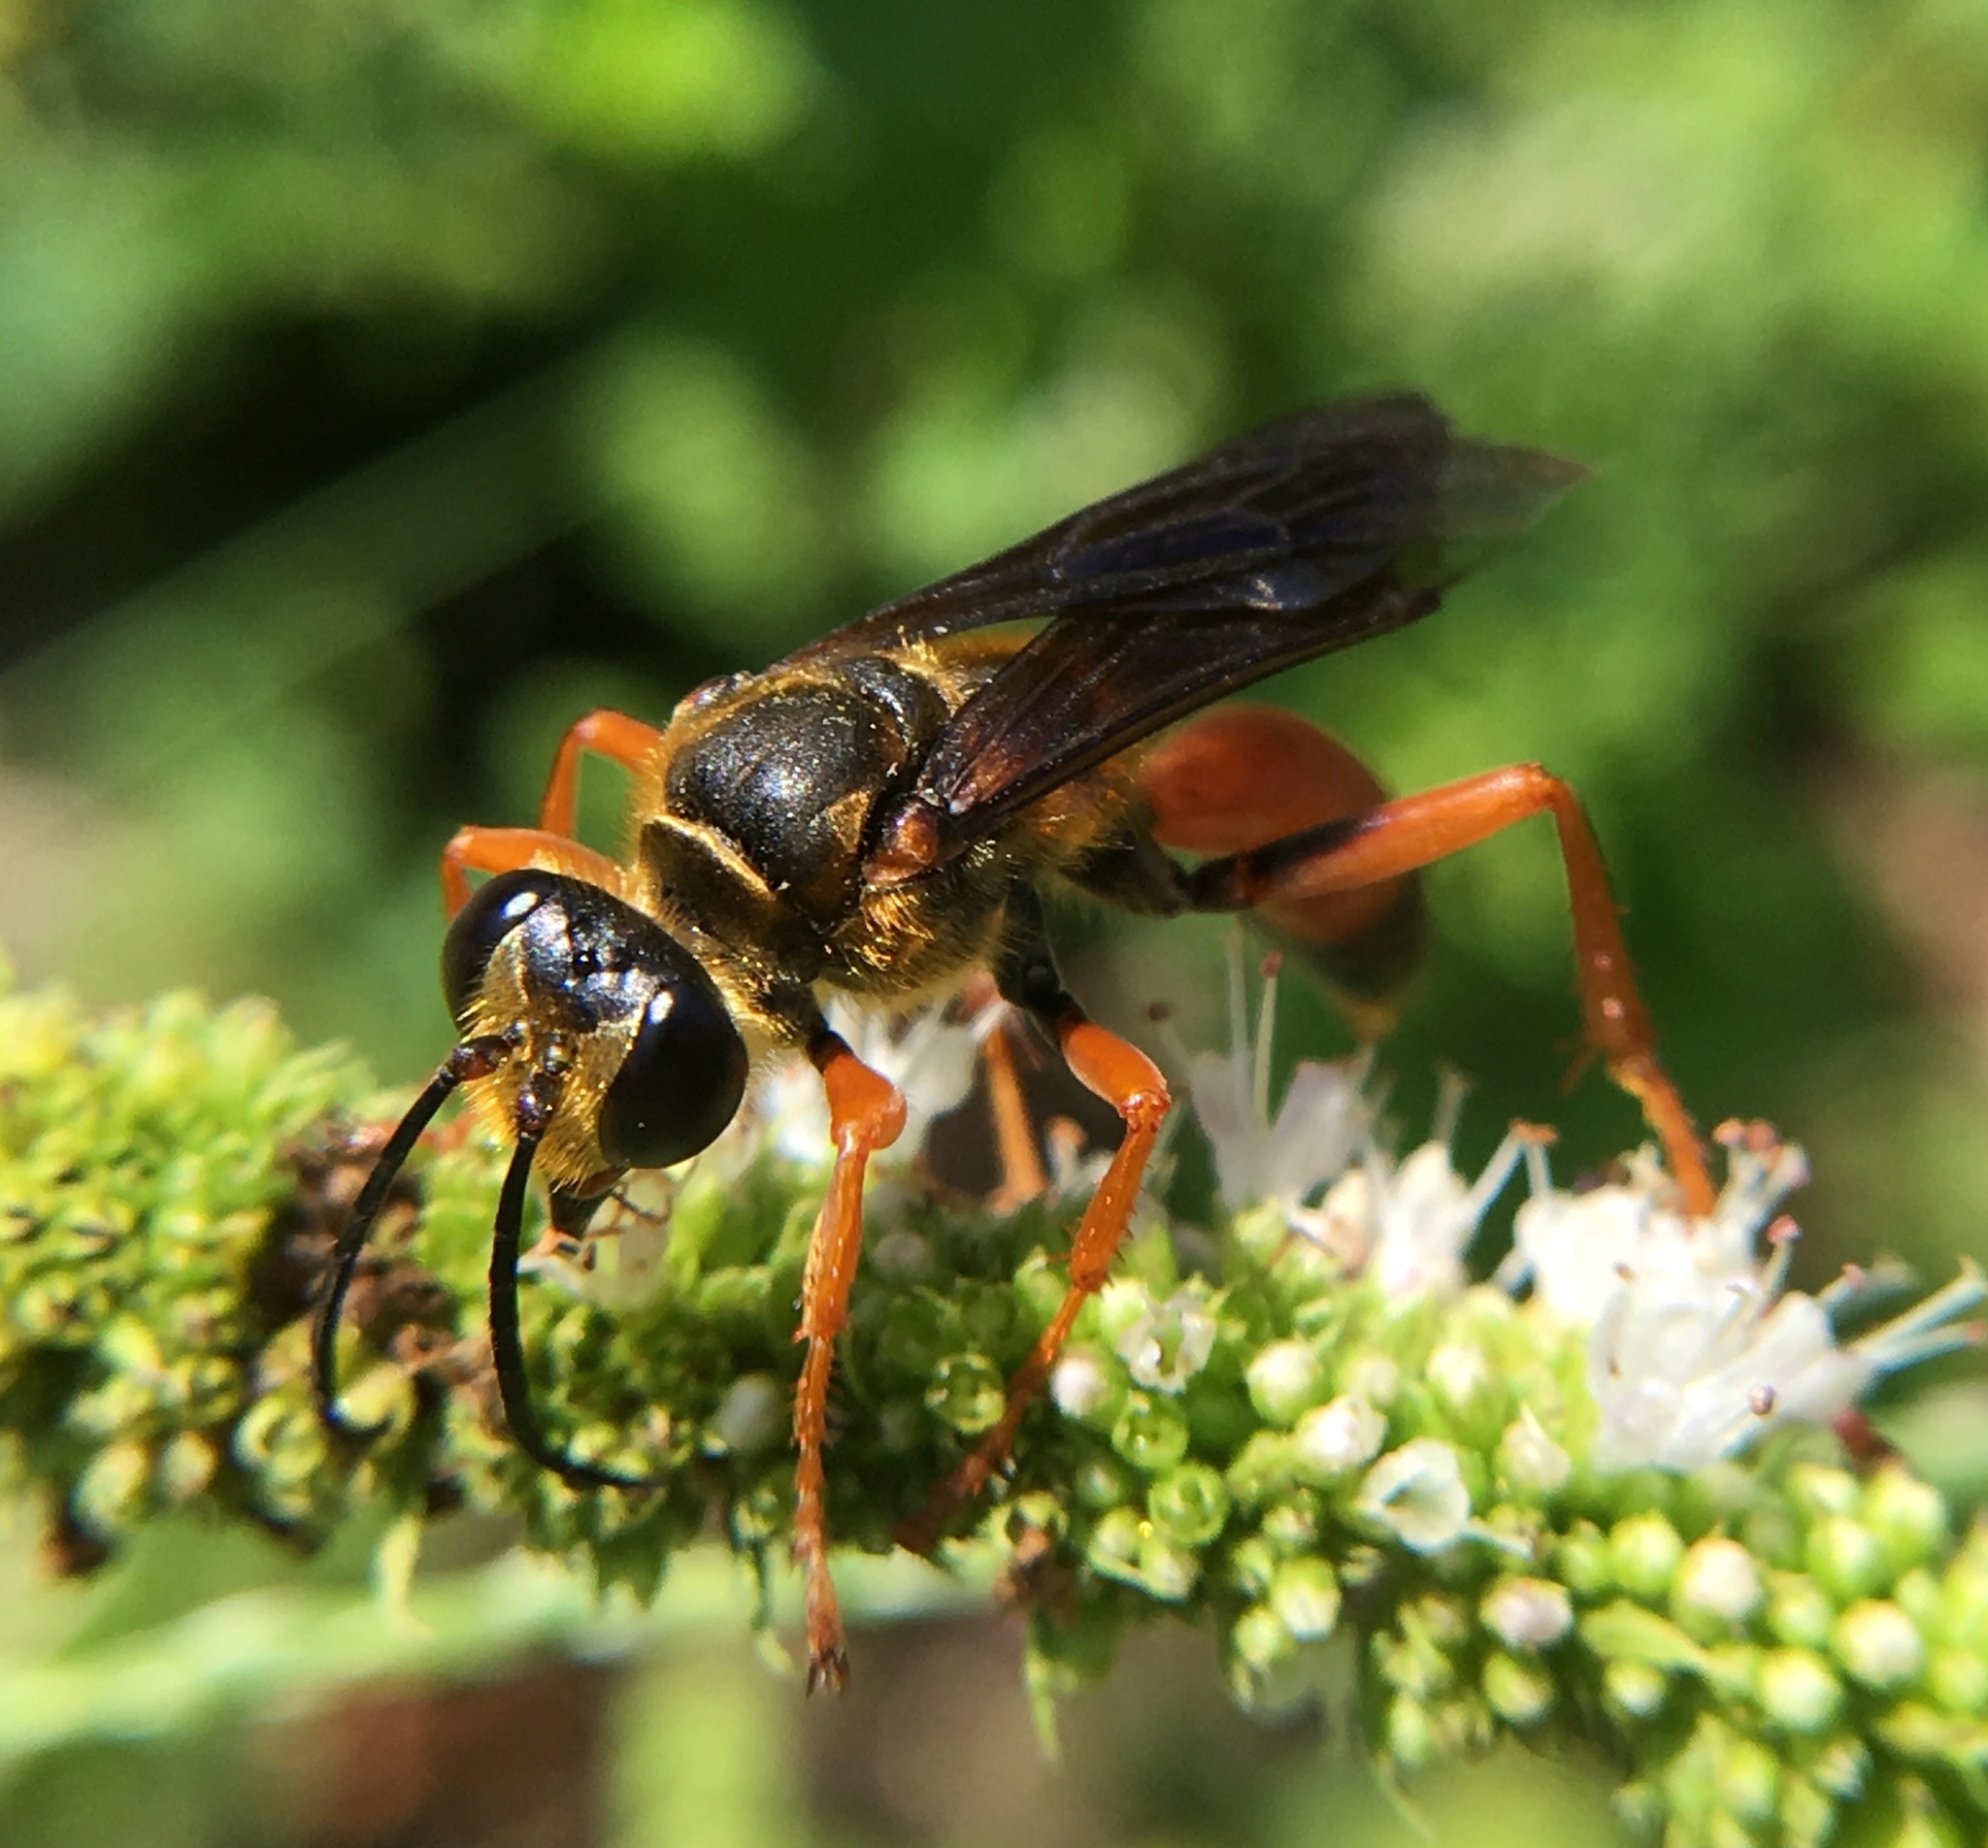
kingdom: Animalia
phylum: Arthropoda
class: Insecta
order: Hymenoptera
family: Sphecidae
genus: Sphex
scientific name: Sphex ichneumoneus
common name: Great golden digger wasp
